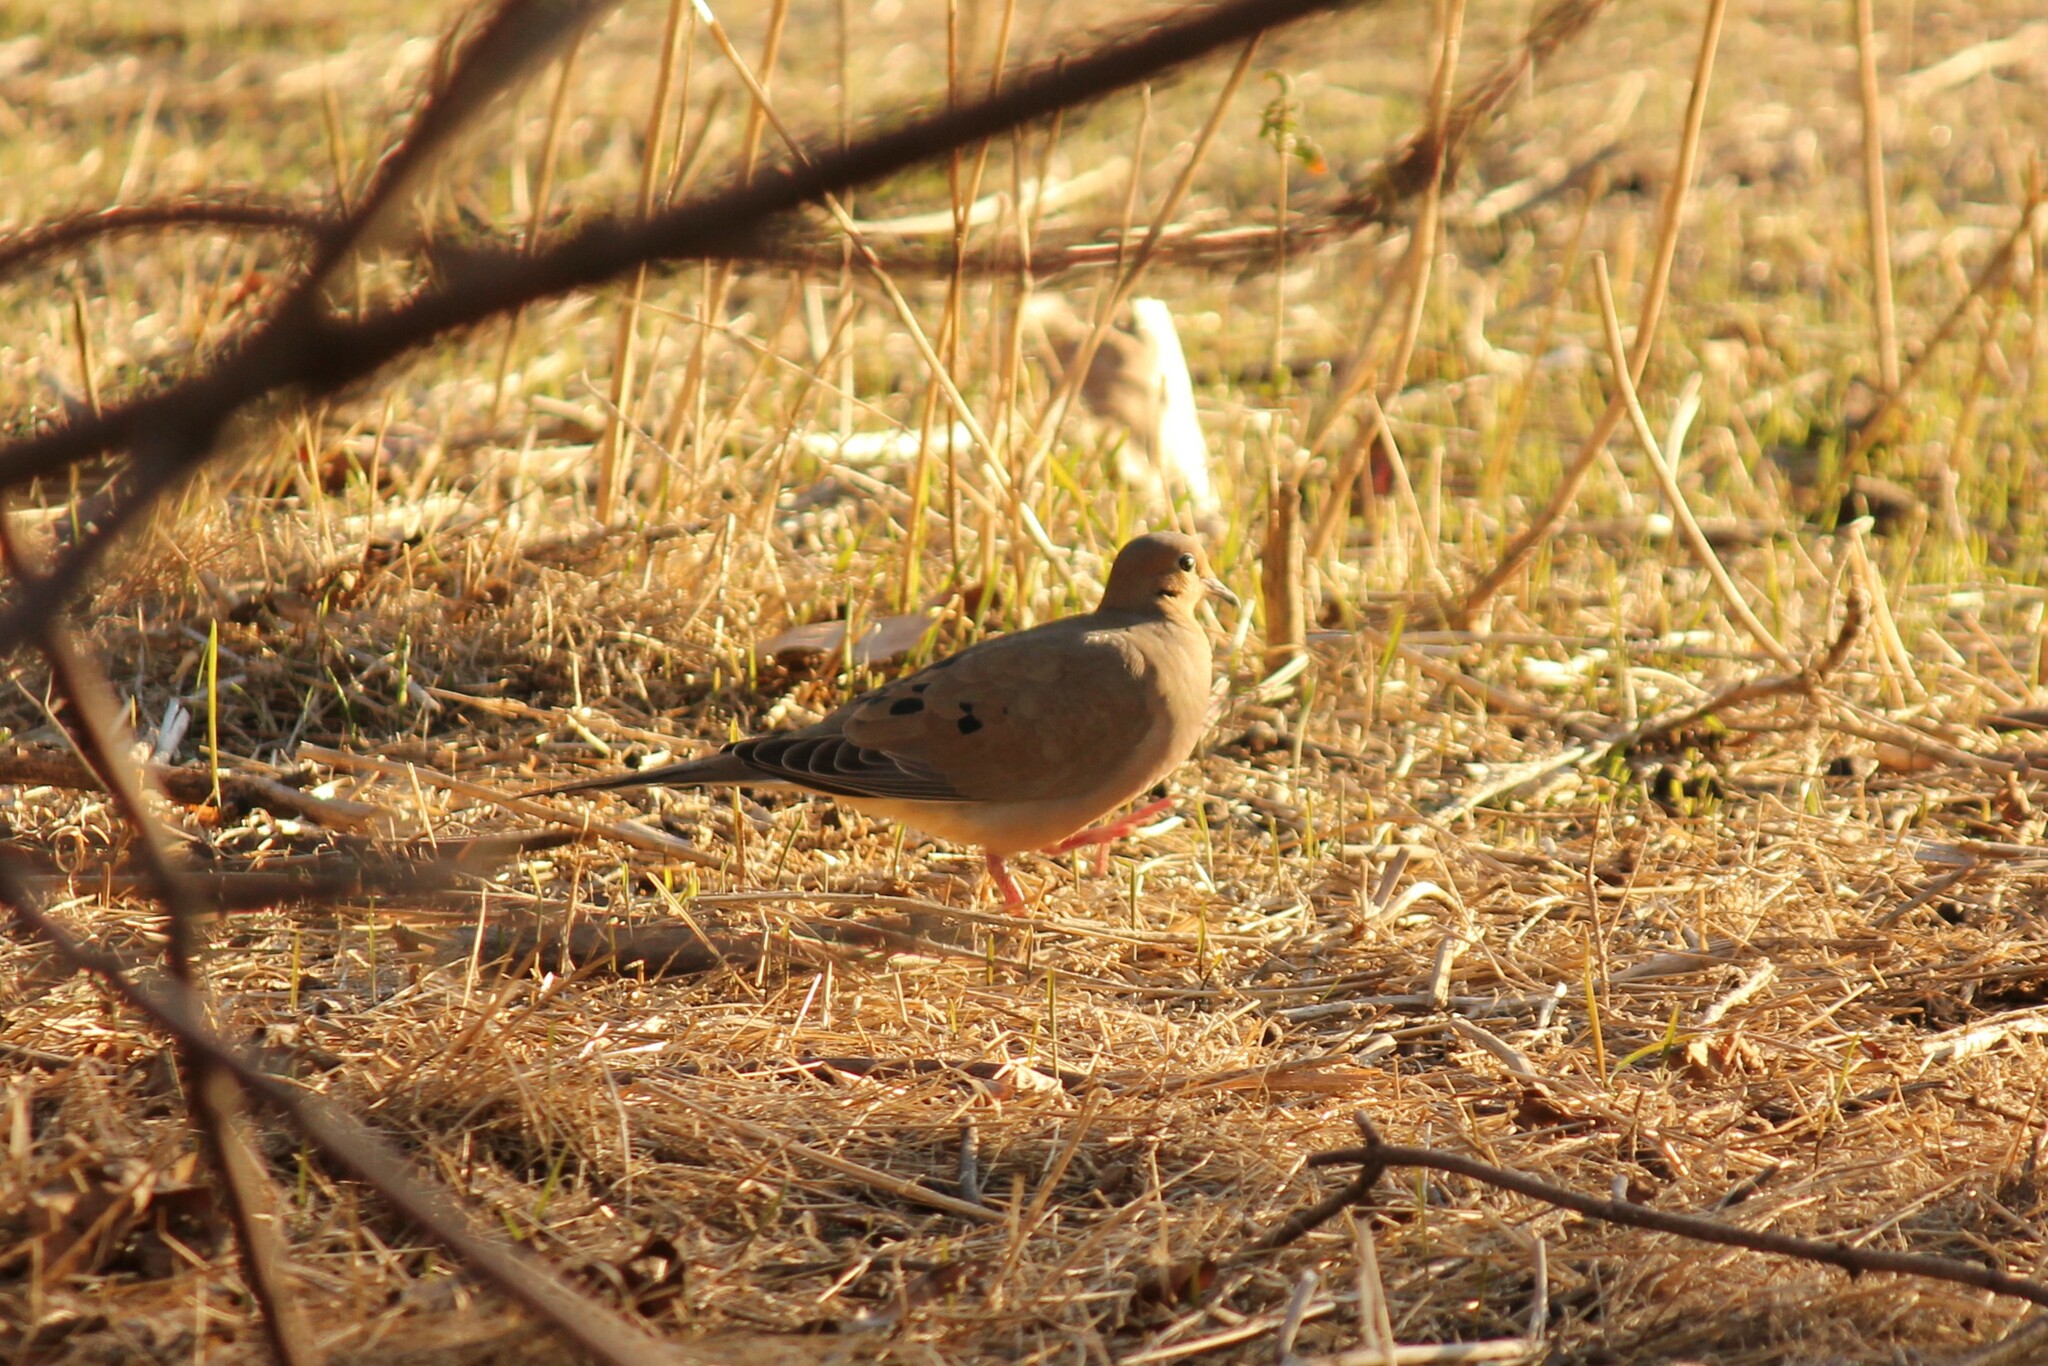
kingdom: Animalia
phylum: Chordata
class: Aves
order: Columbiformes
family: Columbidae
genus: Zenaida
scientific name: Zenaida macroura
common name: Mourning dove
